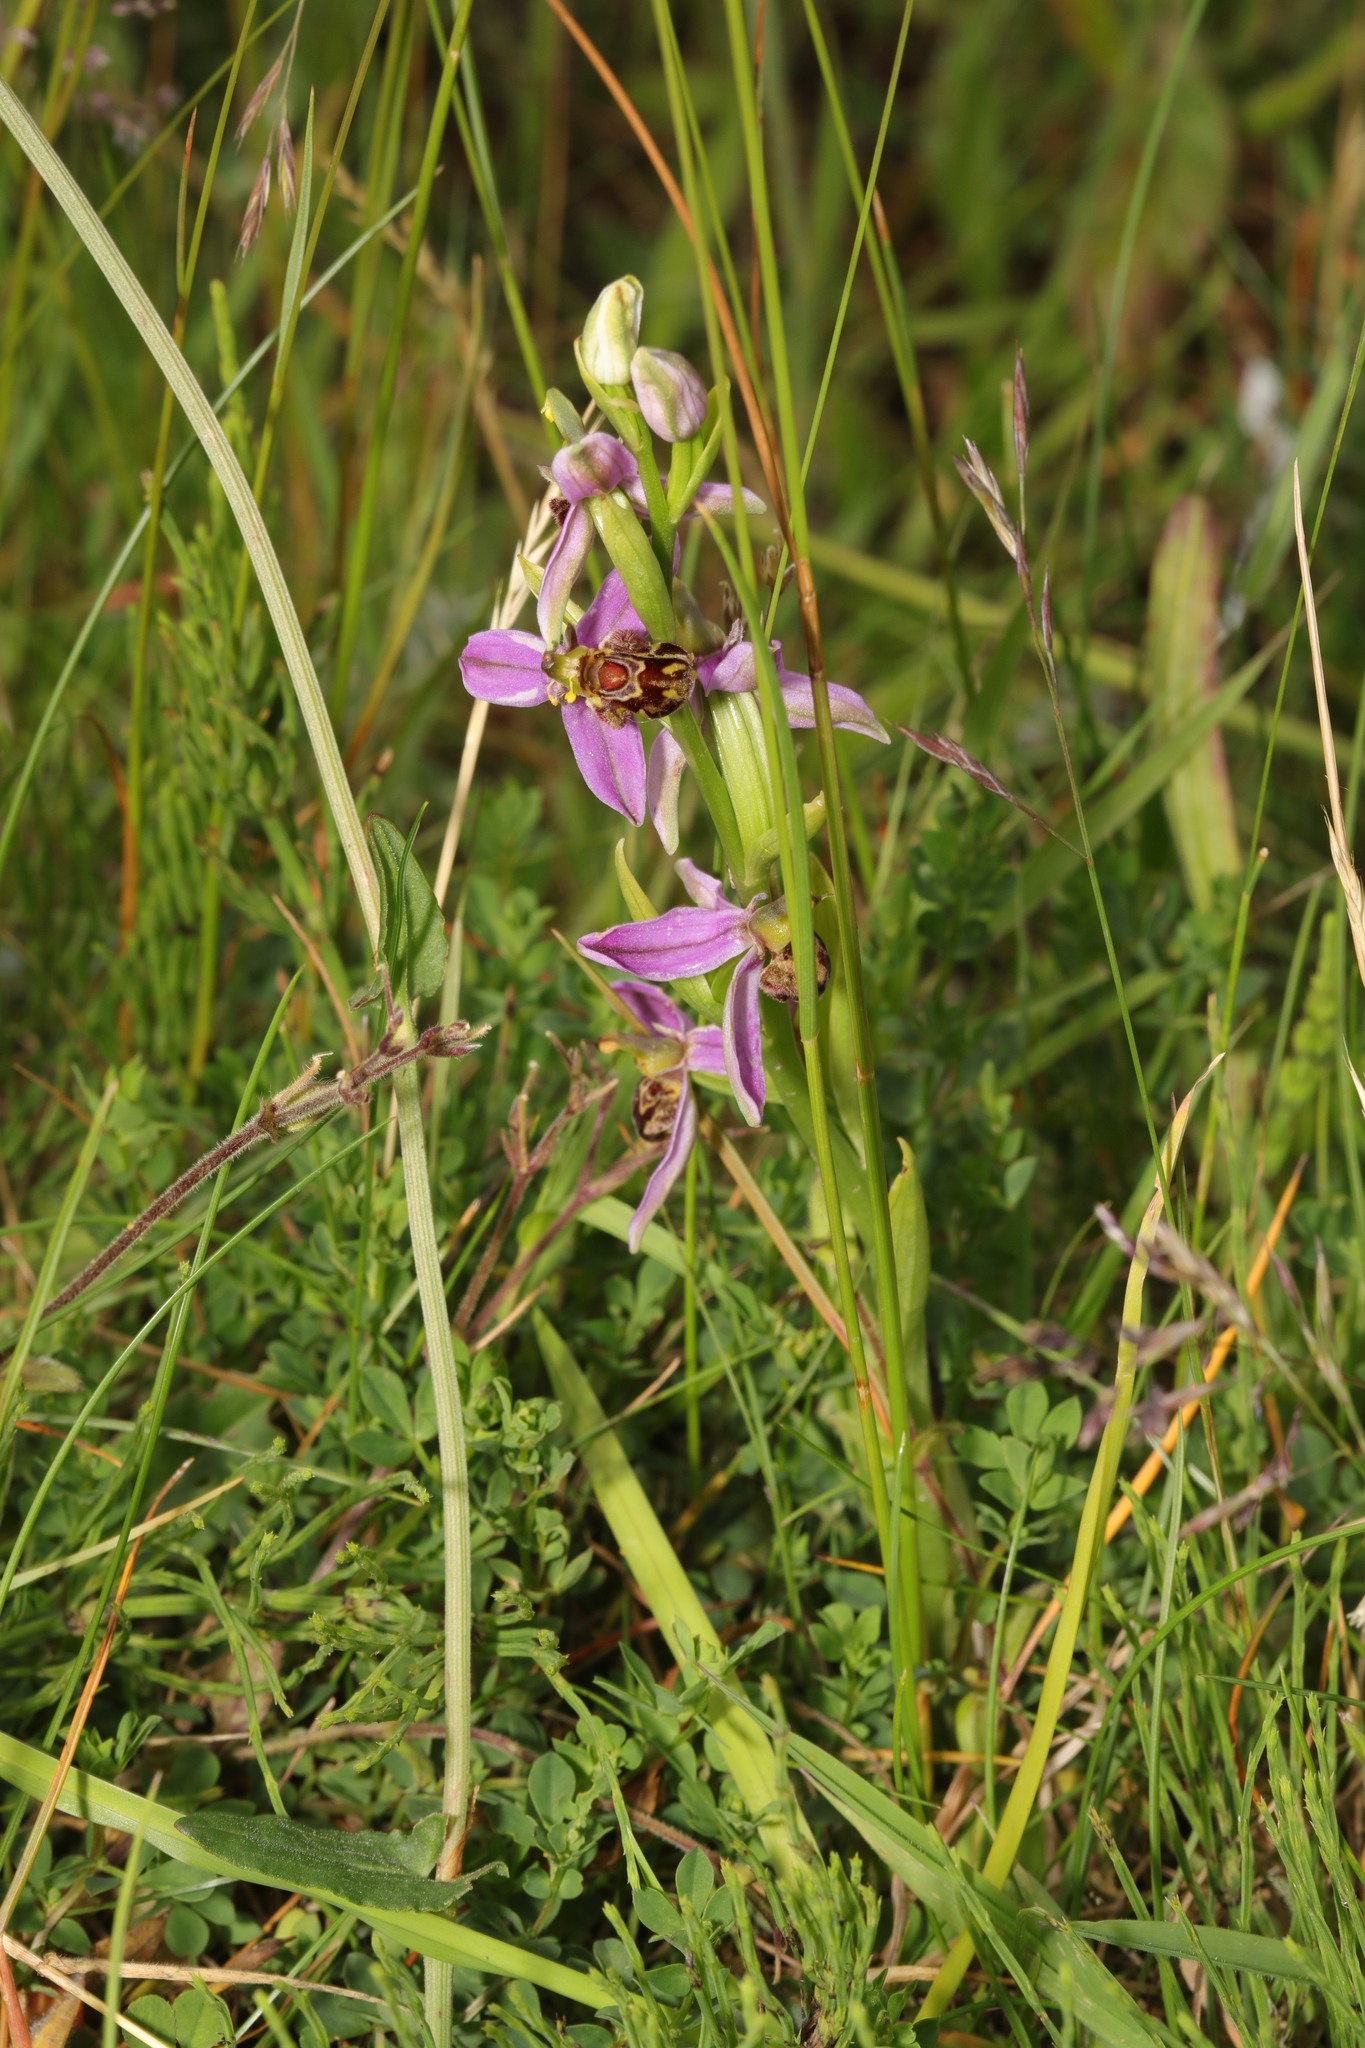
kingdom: Plantae
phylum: Tracheophyta
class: Liliopsida
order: Asparagales
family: Orchidaceae
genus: Ophrys
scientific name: Ophrys apifera
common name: Bee orchid
